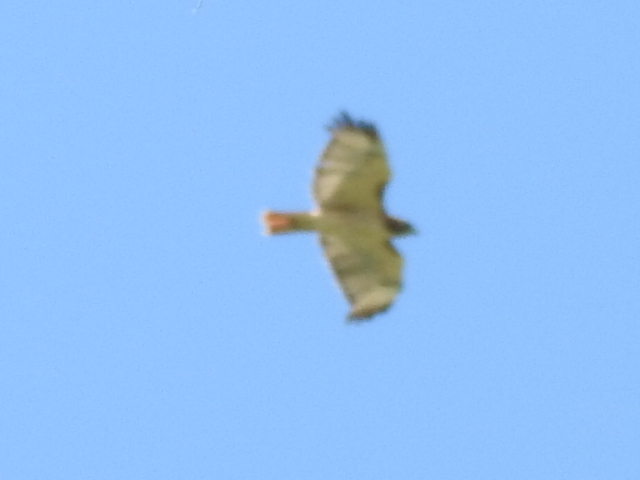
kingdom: Animalia
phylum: Chordata
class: Aves
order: Accipitriformes
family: Accipitridae
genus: Buteo
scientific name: Buteo jamaicensis
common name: Red-tailed hawk
